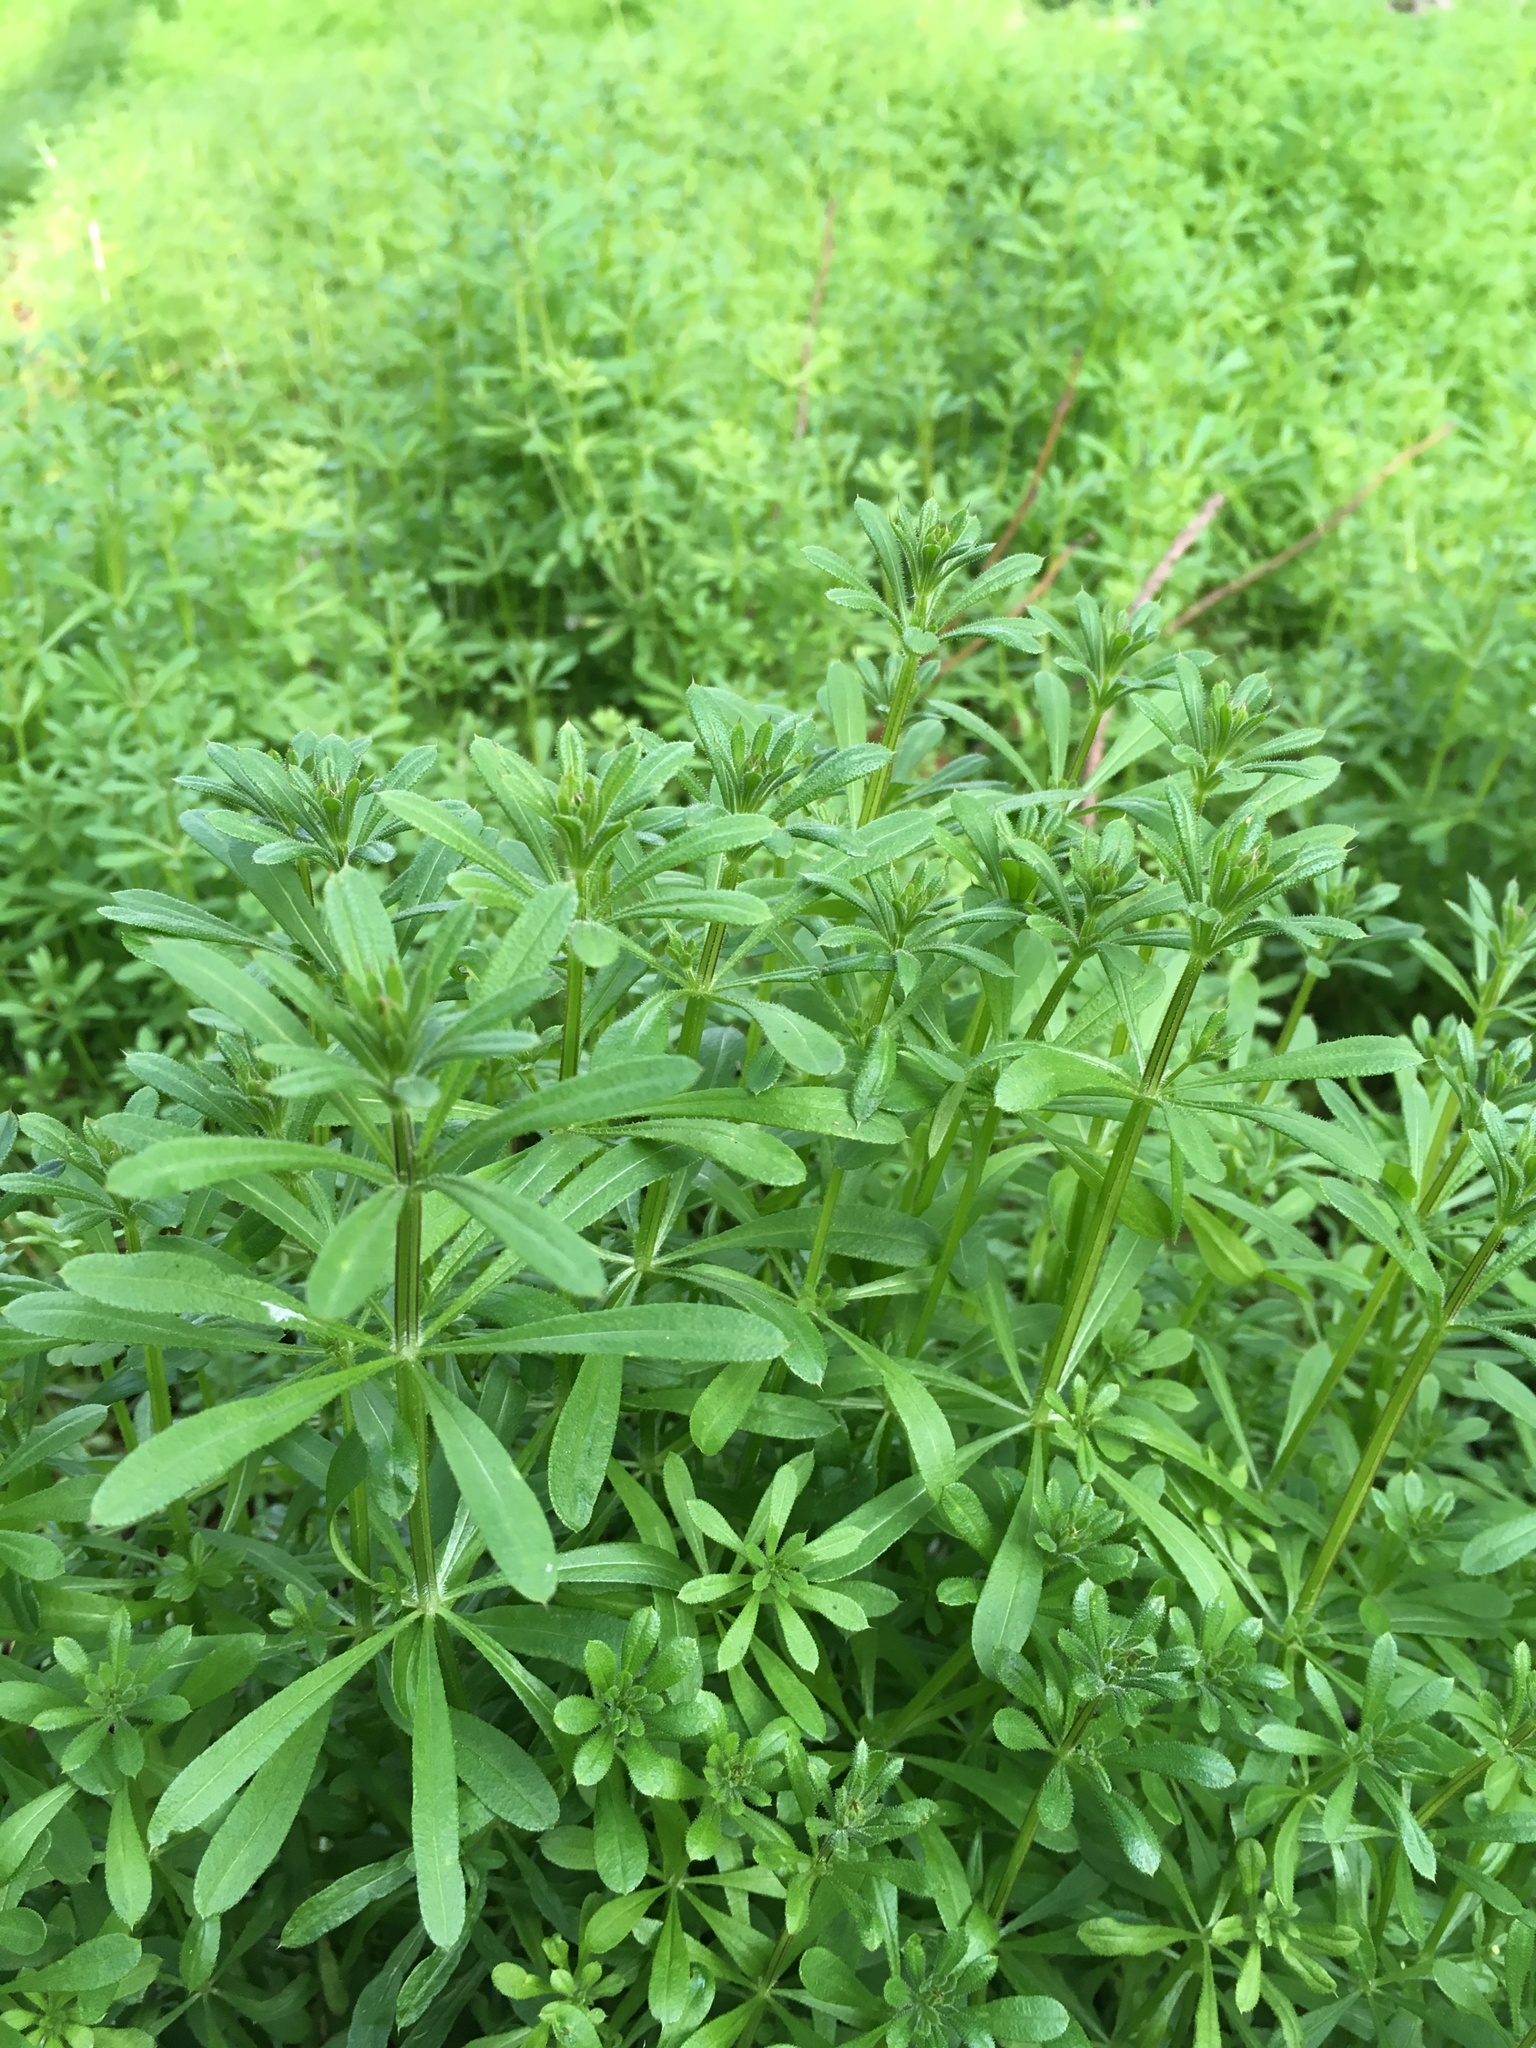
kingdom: Plantae
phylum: Tracheophyta
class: Magnoliopsida
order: Gentianales
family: Rubiaceae
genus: Galium
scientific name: Galium aparine
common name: Cleavers
